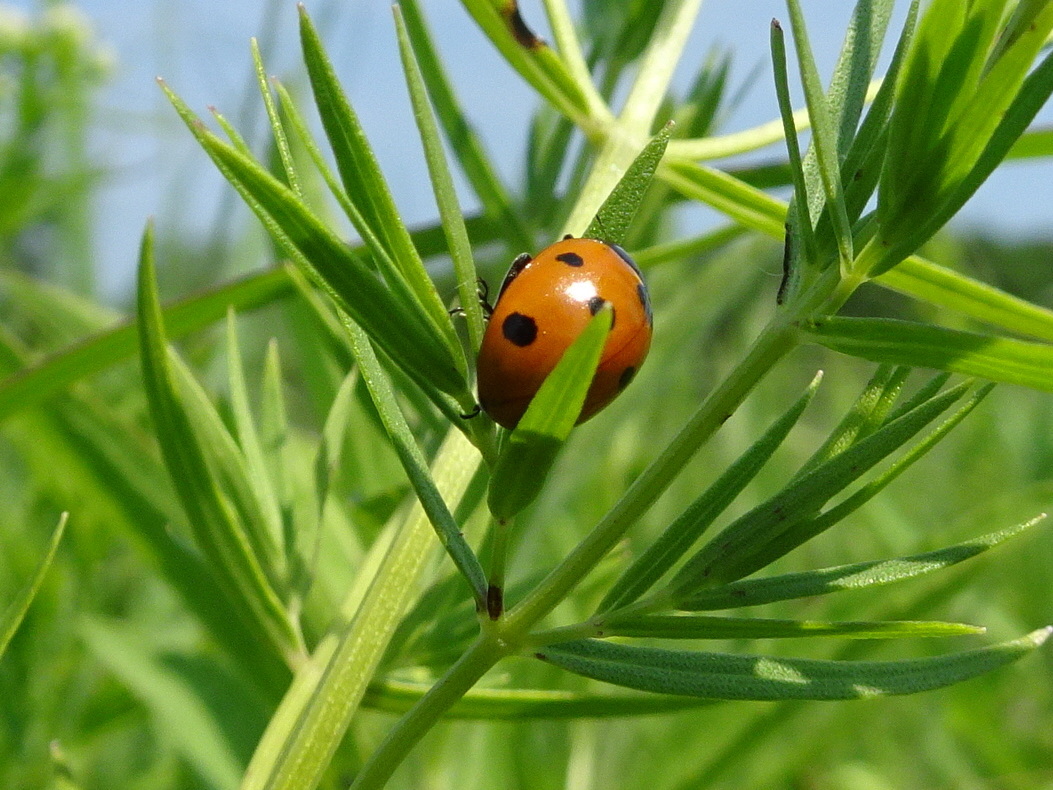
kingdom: Animalia
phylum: Arthropoda
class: Insecta
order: Coleoptera
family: Coccinellidae
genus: Coccinella
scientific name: Coccinella septempunctata
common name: Sevenspotted lady beetle
